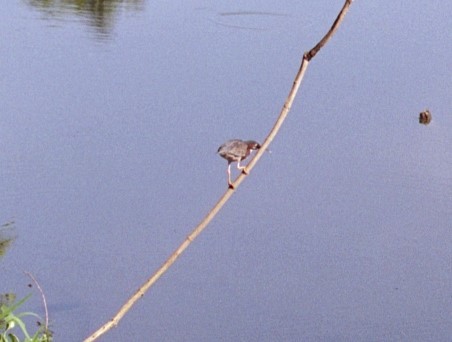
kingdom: Animalia
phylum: Chordata
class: Aves
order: Pelecaniformes
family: Ardeidae
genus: Butorides
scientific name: Butorides virescens
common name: Green heron
